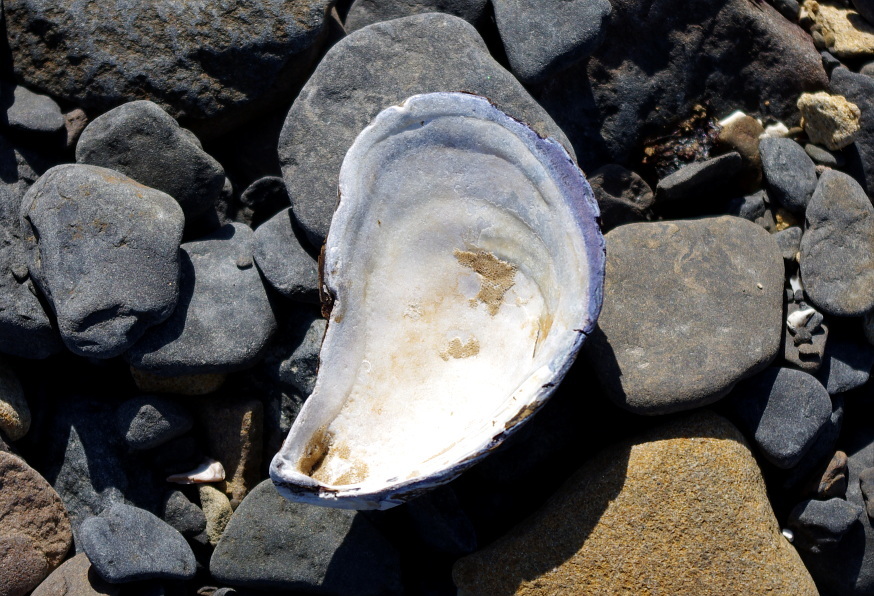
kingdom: Animalia
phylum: Mollusca
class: Bivalvia
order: Mytilida
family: Mytilidae
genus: Mytilus
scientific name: Mytilus trossulus
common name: Northern blue mussel
